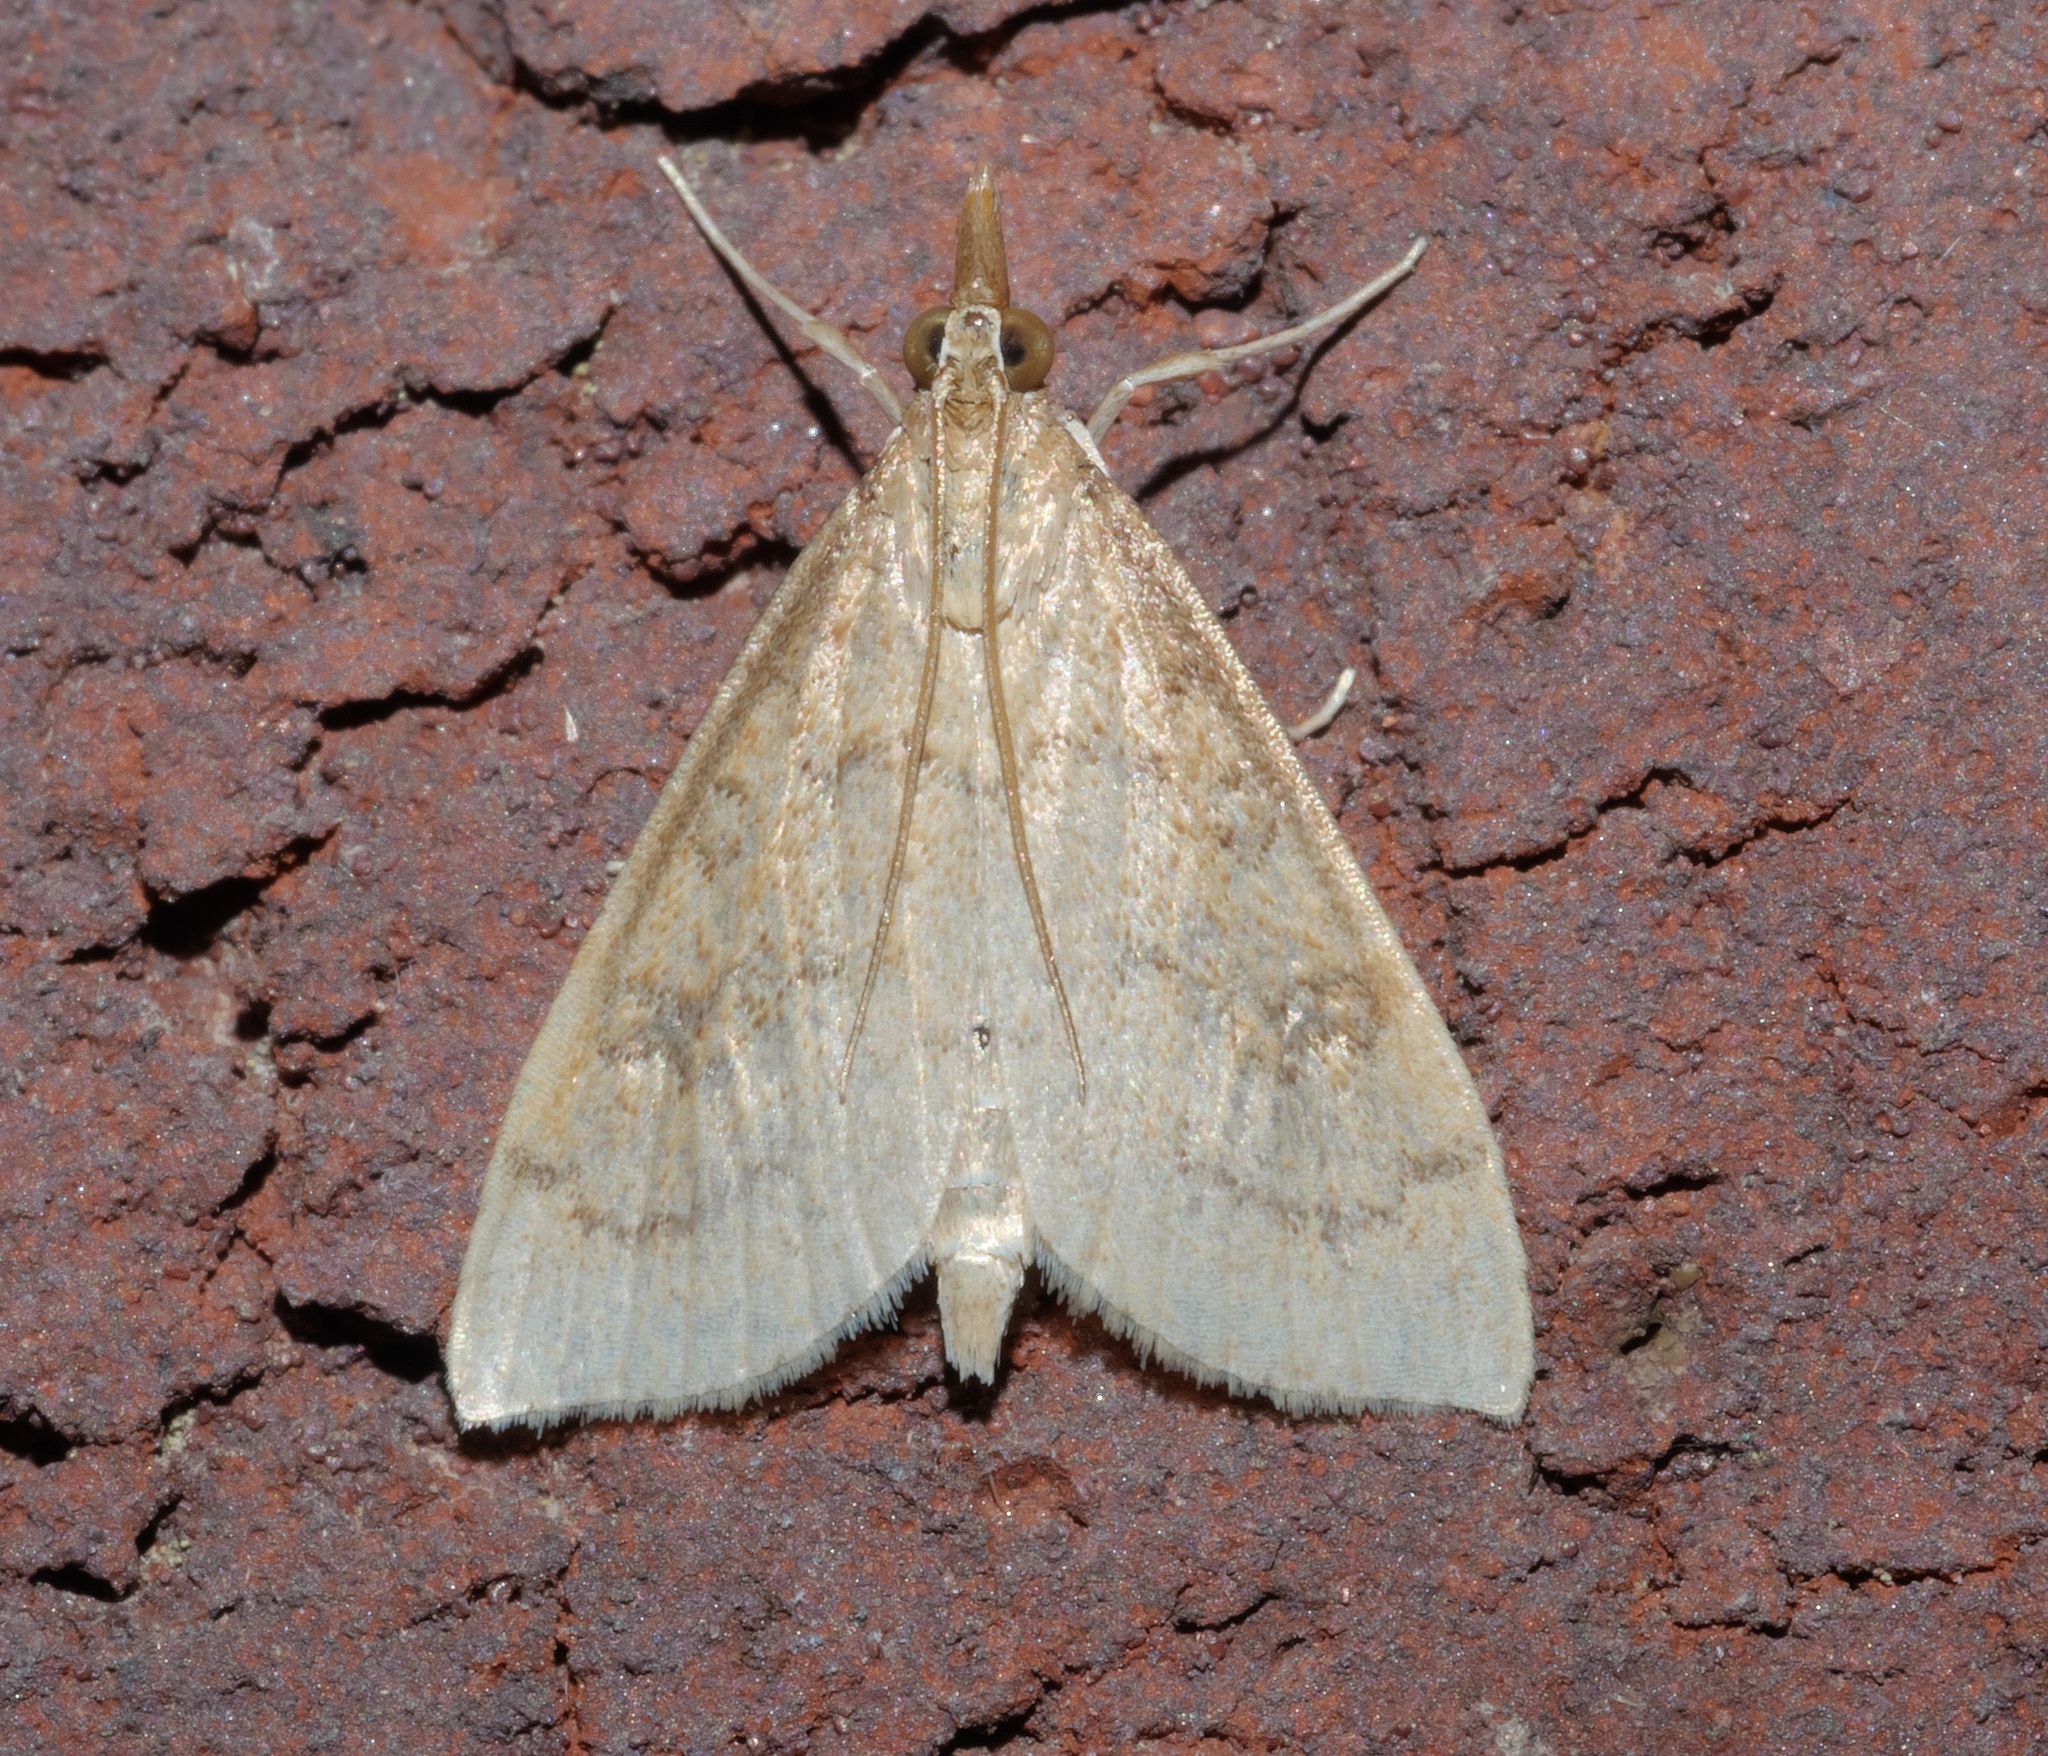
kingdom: Animalia
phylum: Arthropoda
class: Insecta
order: Lepidoptera
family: Crambidae
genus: Udea
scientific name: Udea rubigalis
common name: Celery leaftier moth
